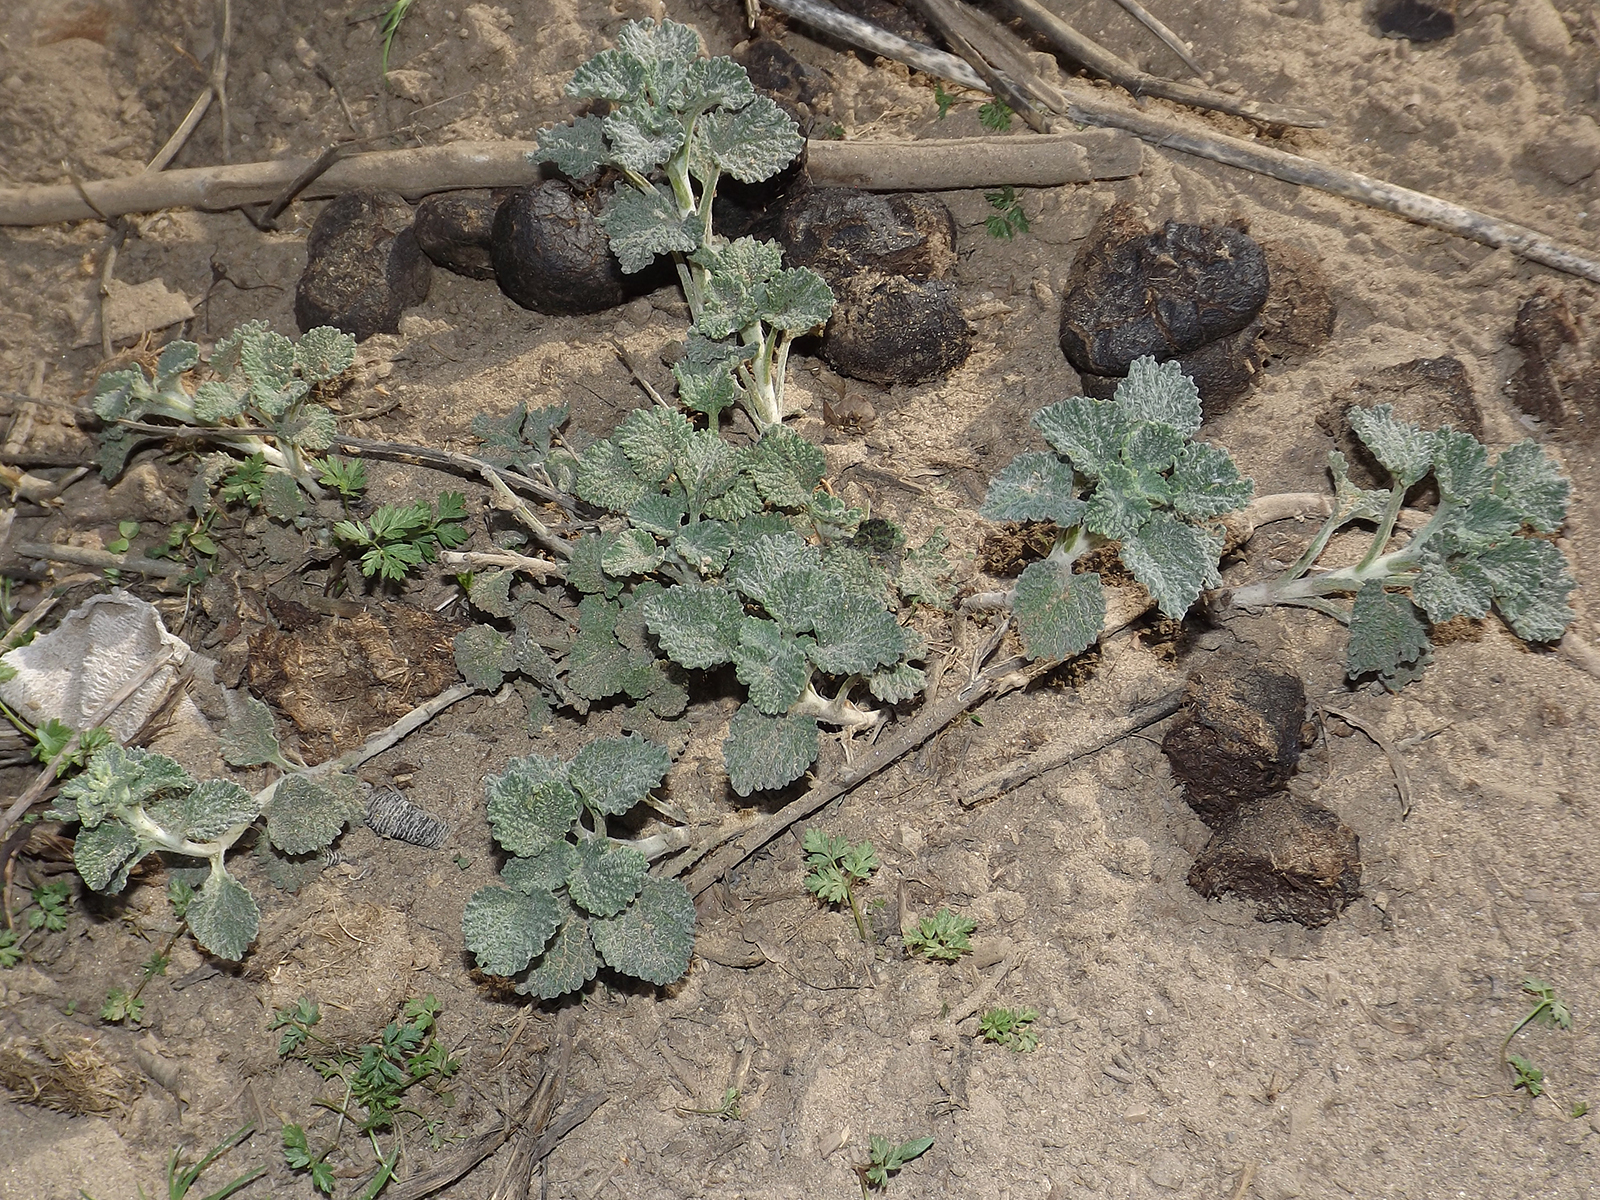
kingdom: Plantae
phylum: Tracheophyta
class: Magnoliopsida
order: Lamiales
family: Lamiaceae
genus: Marrubium
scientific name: Marrubium vulgare
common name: Horehound
